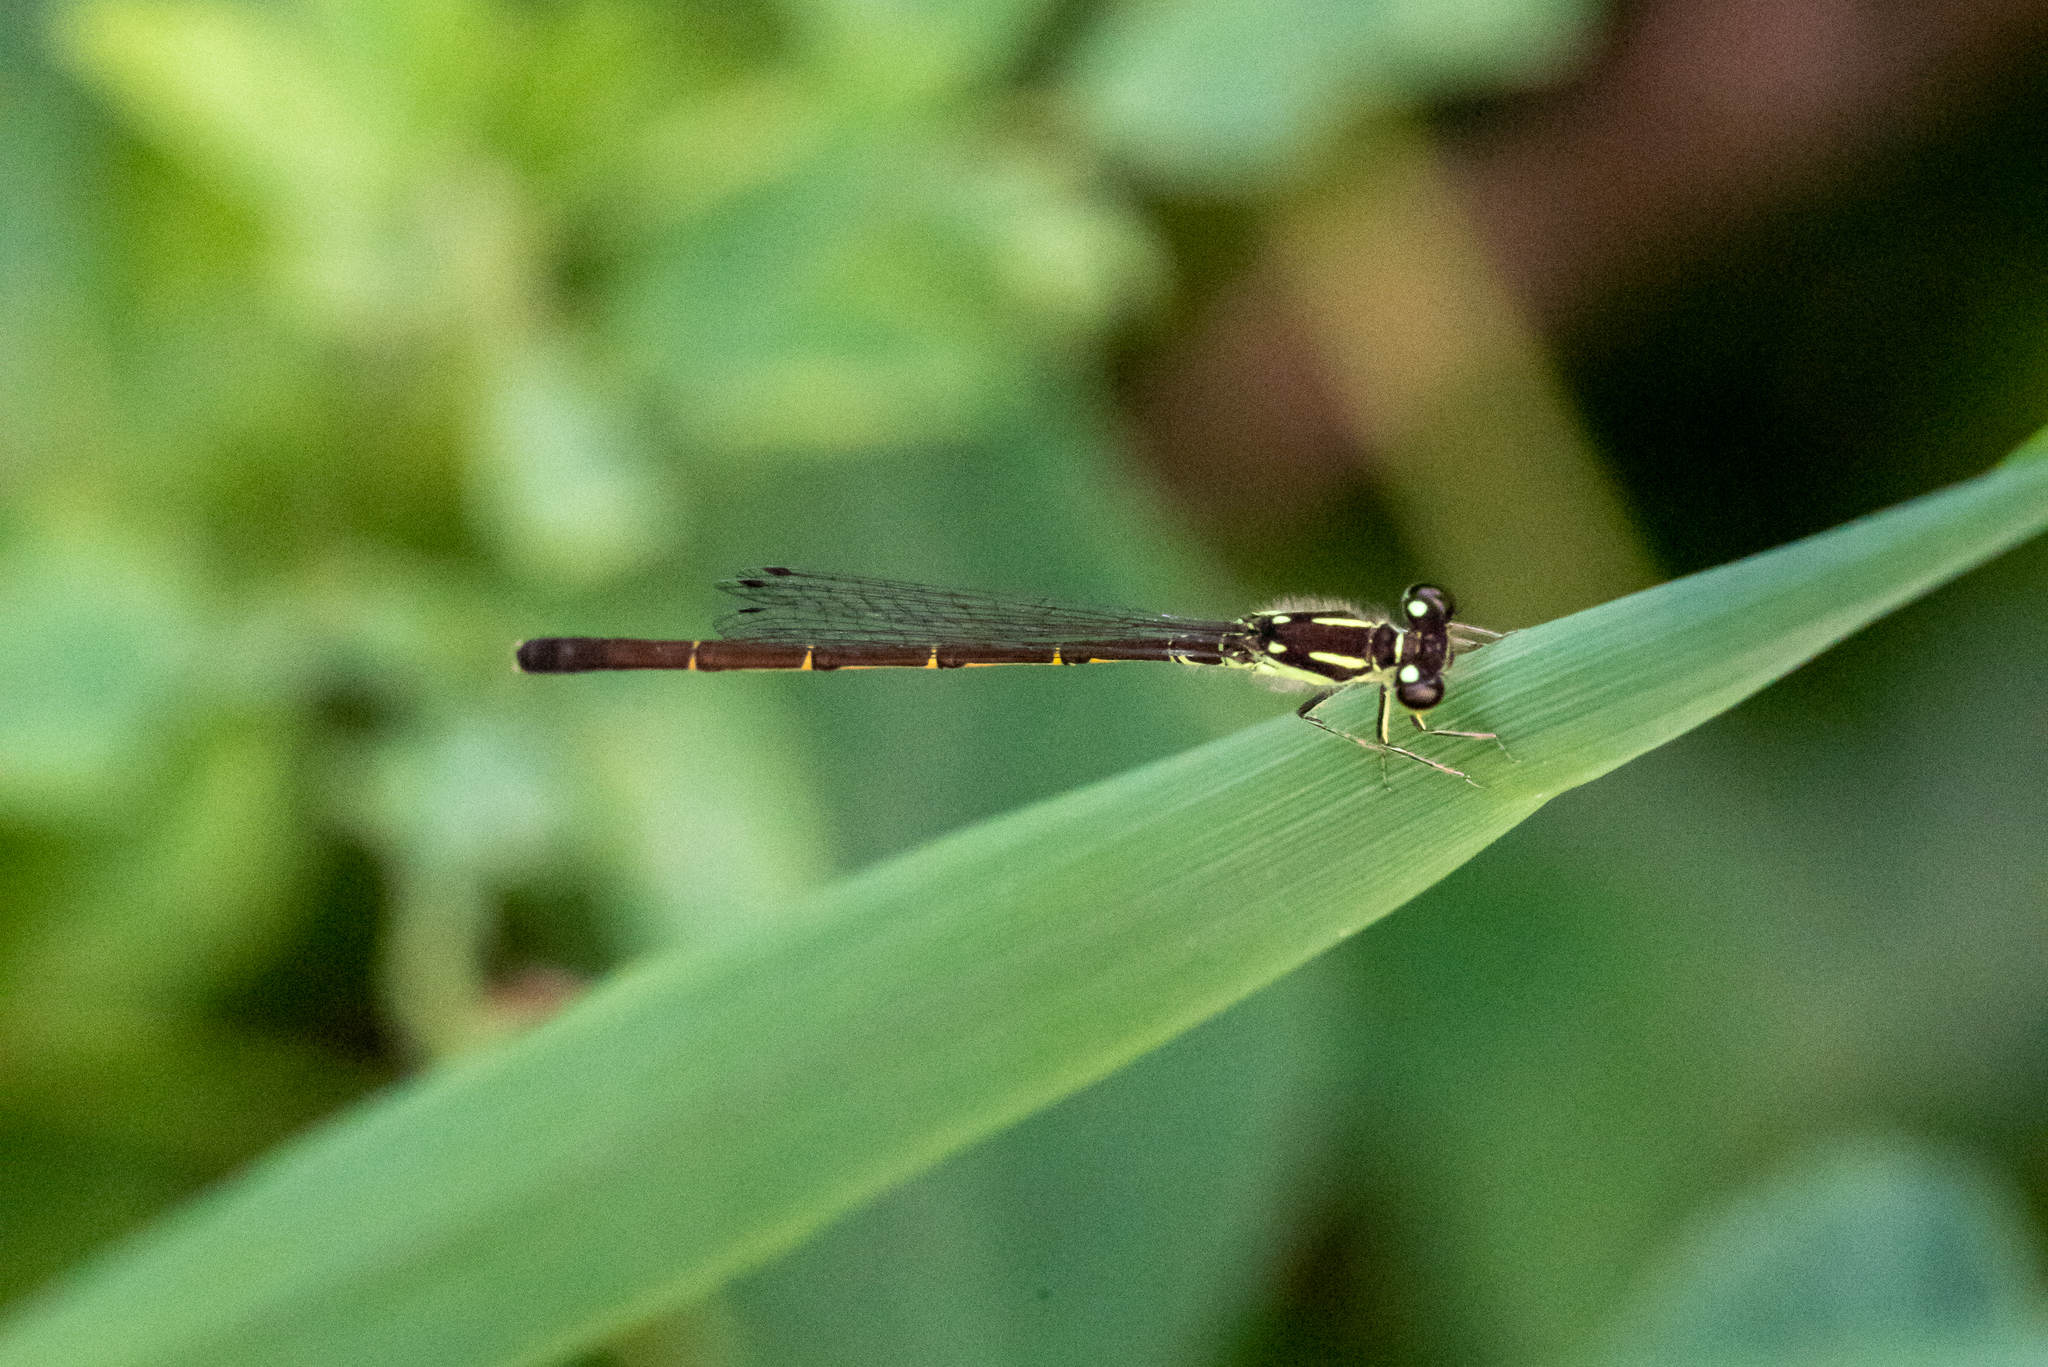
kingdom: Animalia
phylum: Arthropoda
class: Insecta
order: Odonata
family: Coenagrionidae
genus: Ischnura
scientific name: Ischnura posita
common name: Fragile forktail
